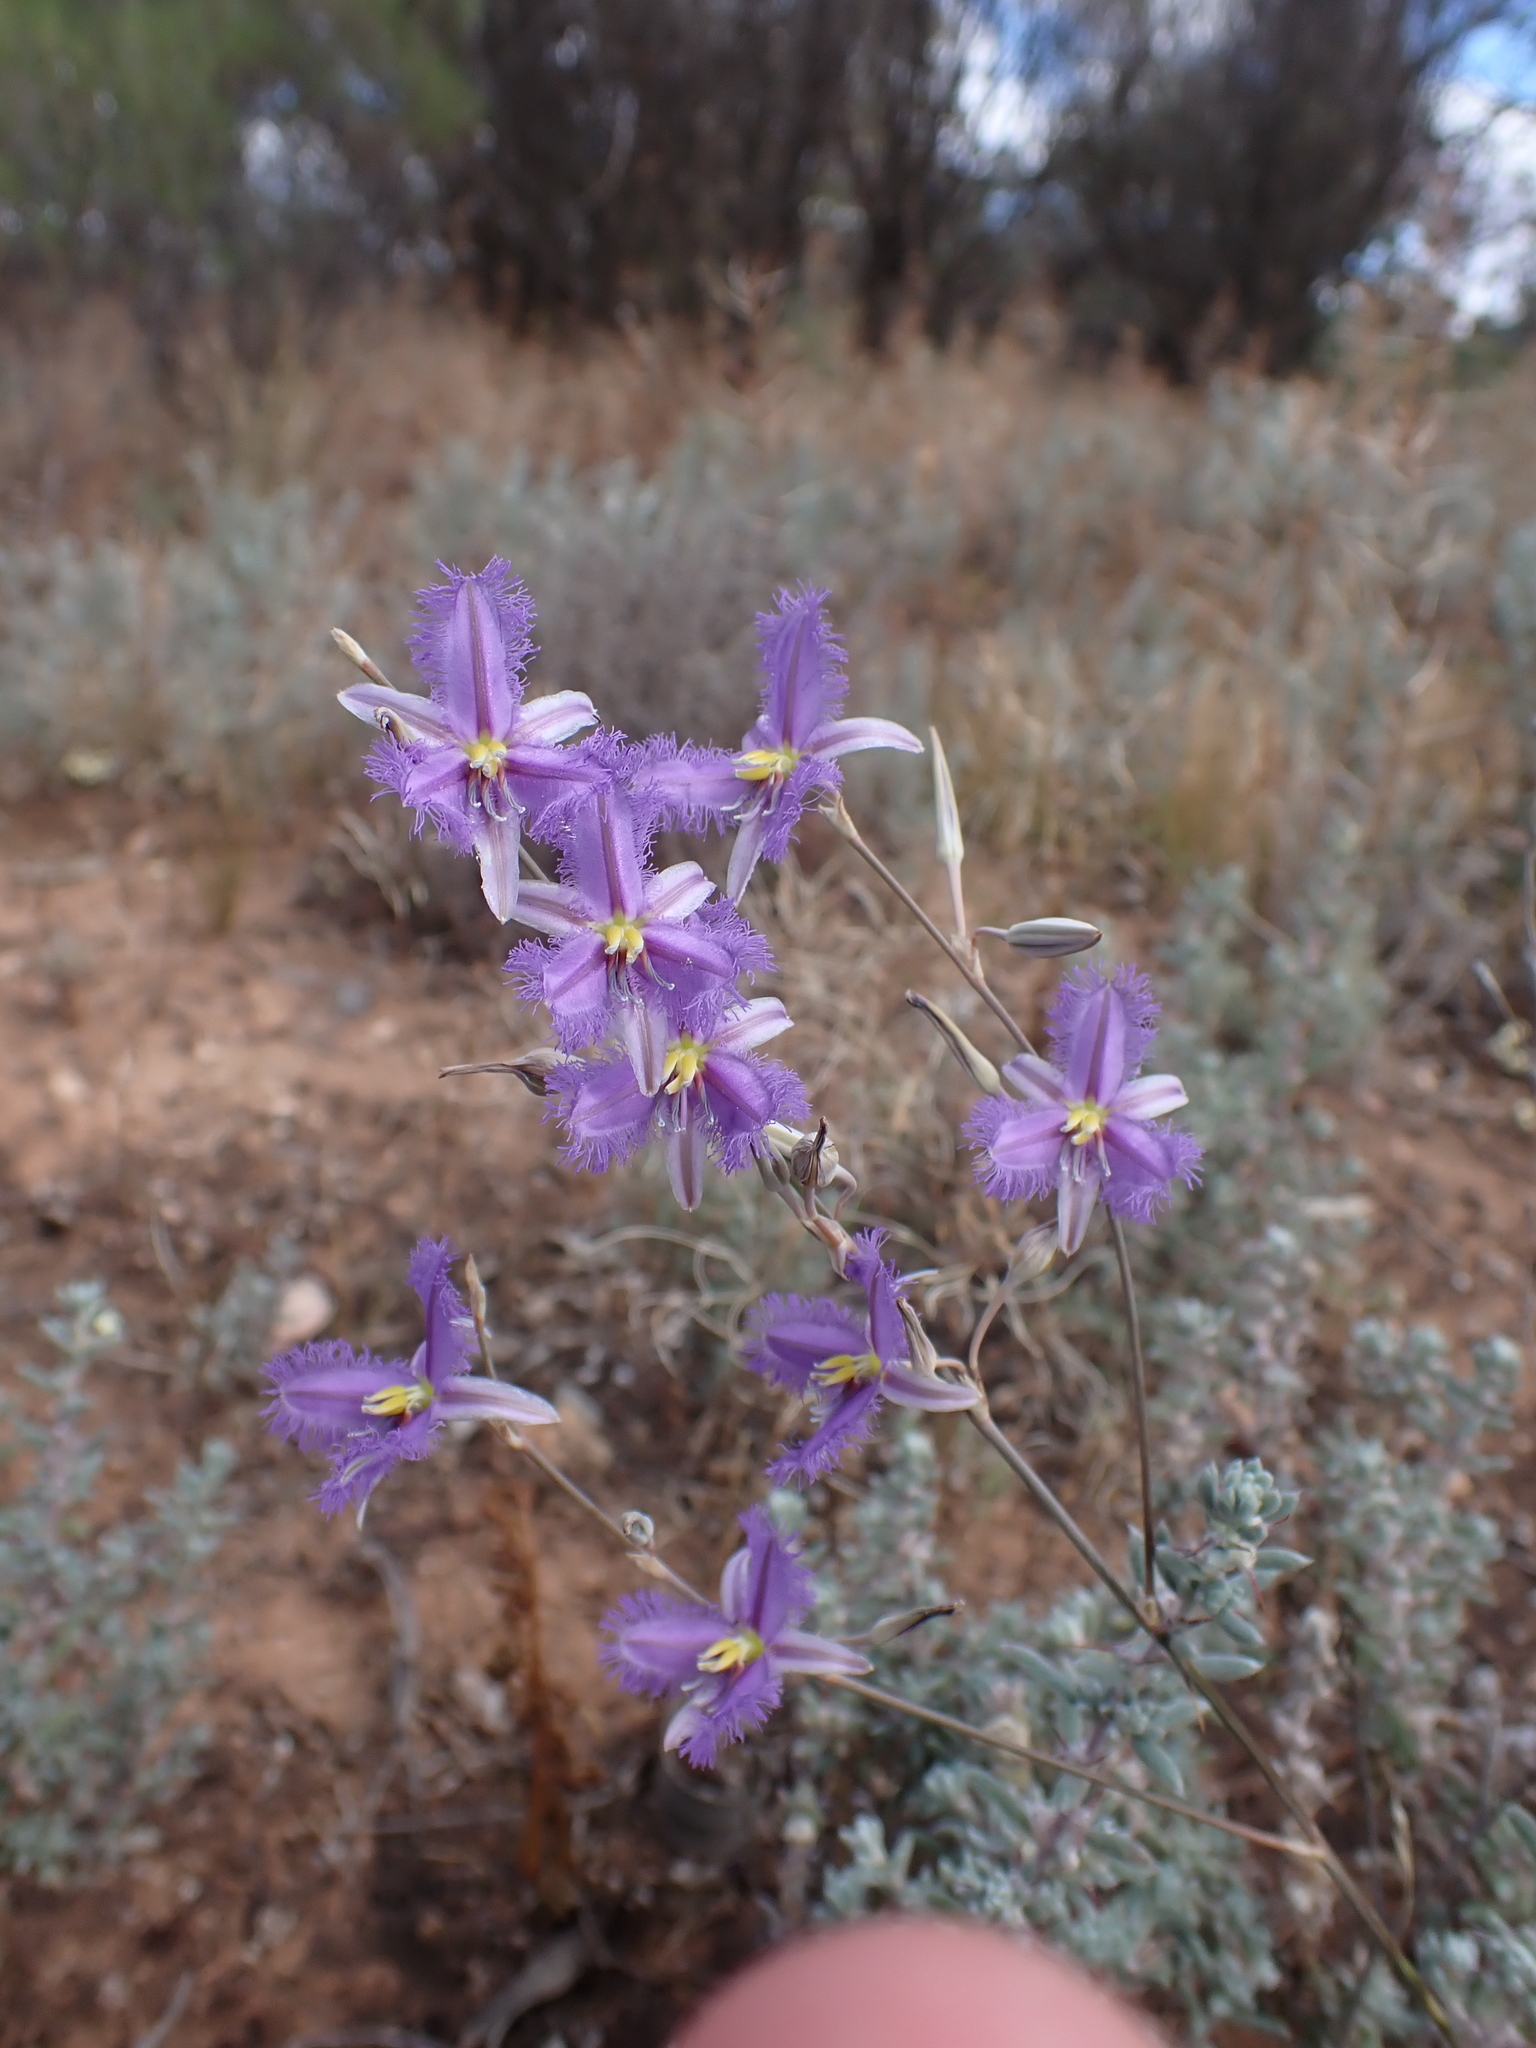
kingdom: Plantae
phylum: Tracheophyta
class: Liliopsida
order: Asparagales
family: Asparagaceae
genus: Thysanotus
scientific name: Thysanotus baueri
